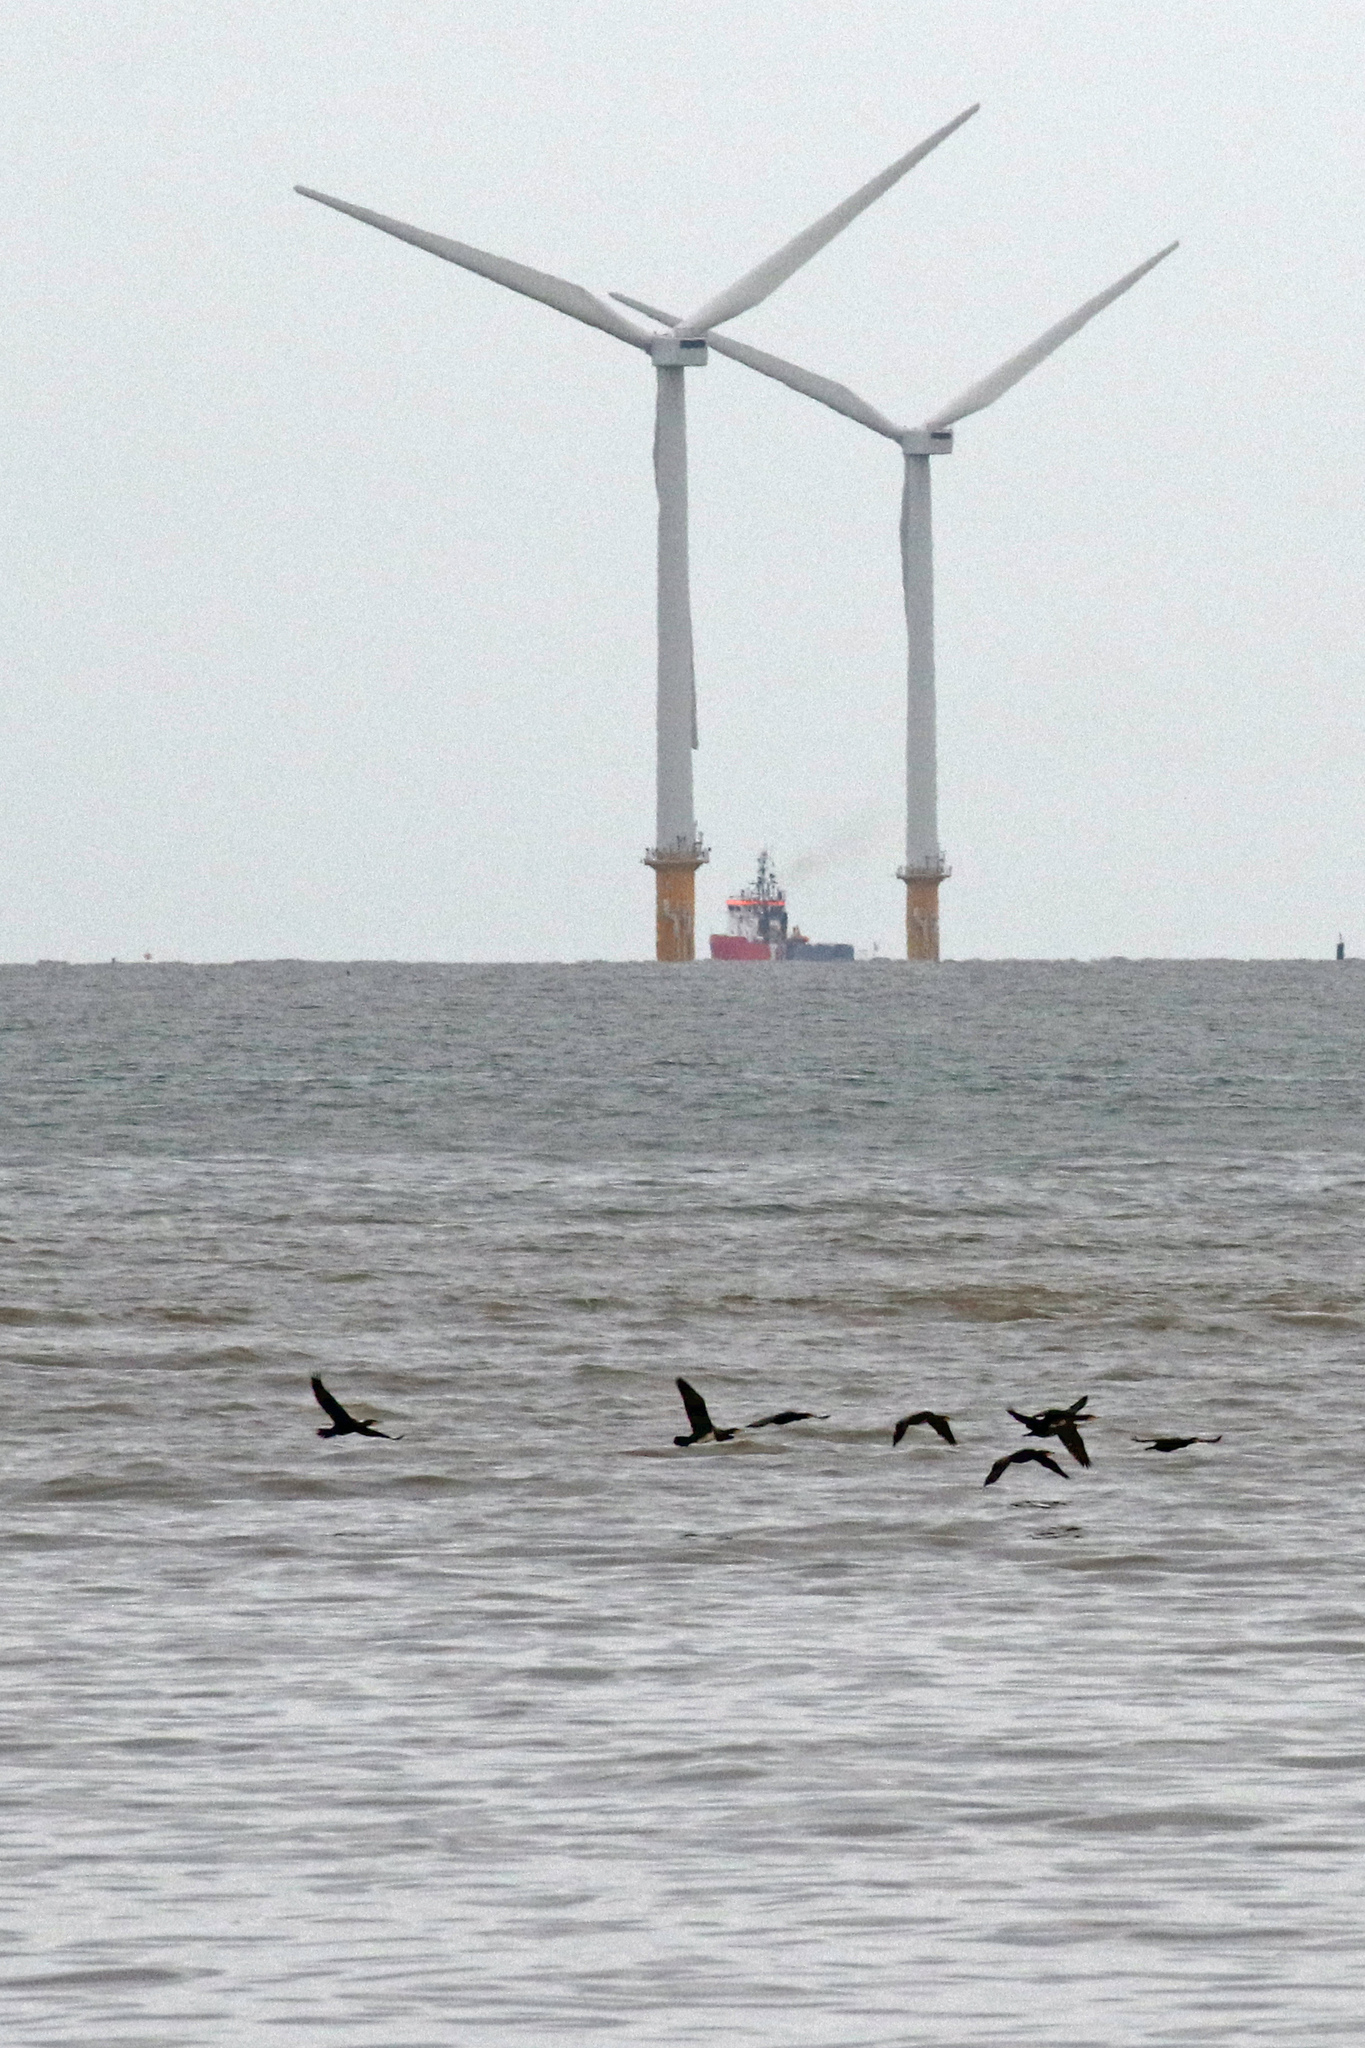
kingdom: Animalia
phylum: Chordata
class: Aves
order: Suliformes
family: Phalacrocoracidae
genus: Phalacrocorax
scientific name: Phalacrocorax carbo
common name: Great cormorant
